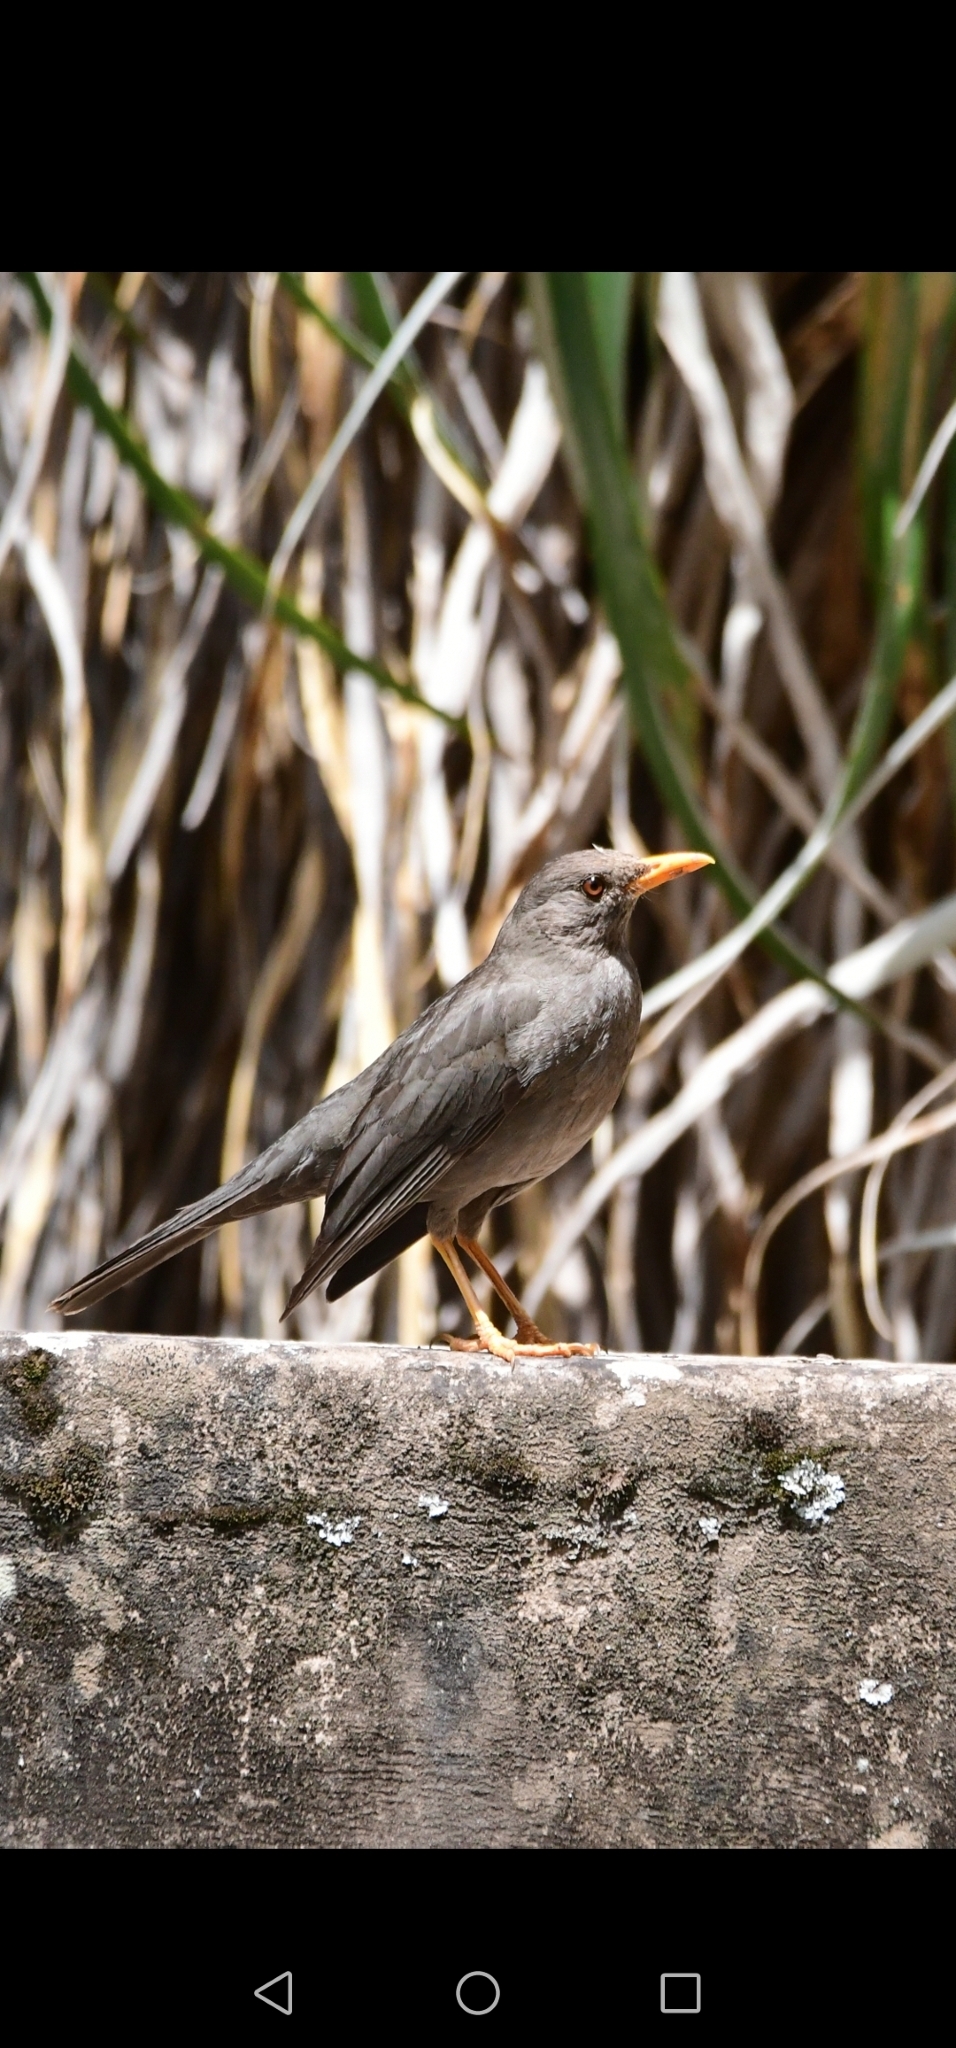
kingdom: Animalia
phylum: Chordata
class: Aves
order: Passeriformes
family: Turdidae
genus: Turdus
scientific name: Turdus chiguanco
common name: Chiguanco thrush
